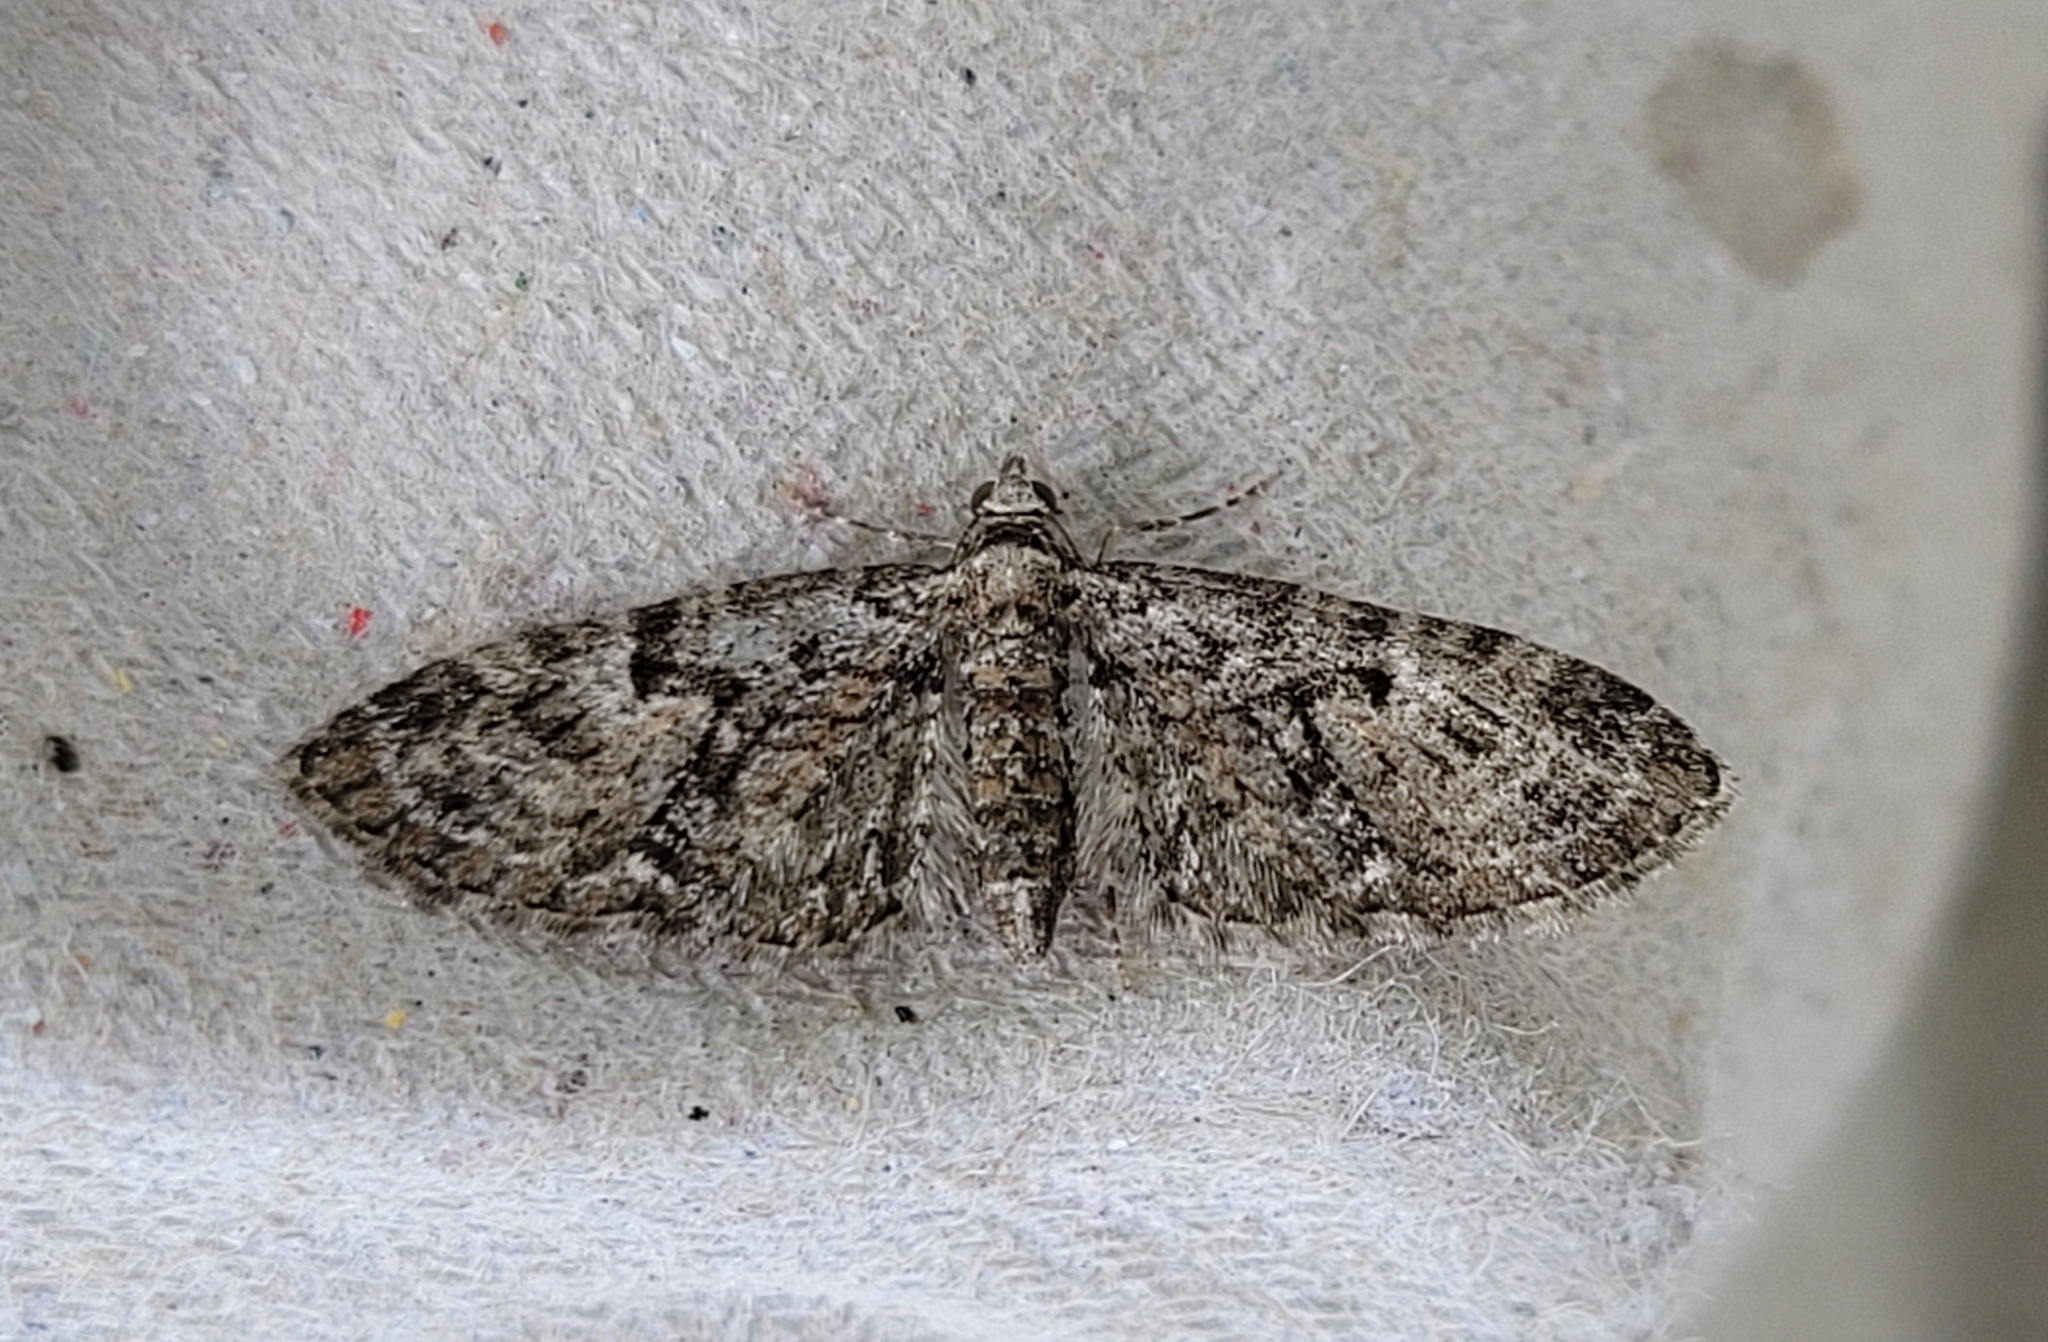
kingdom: Animalia
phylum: Arthropoda
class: Insecta
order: Lepidoptera
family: Geometridae
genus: Eupithecia
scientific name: Eupithecia dodoneata
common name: Oak-tree pug
